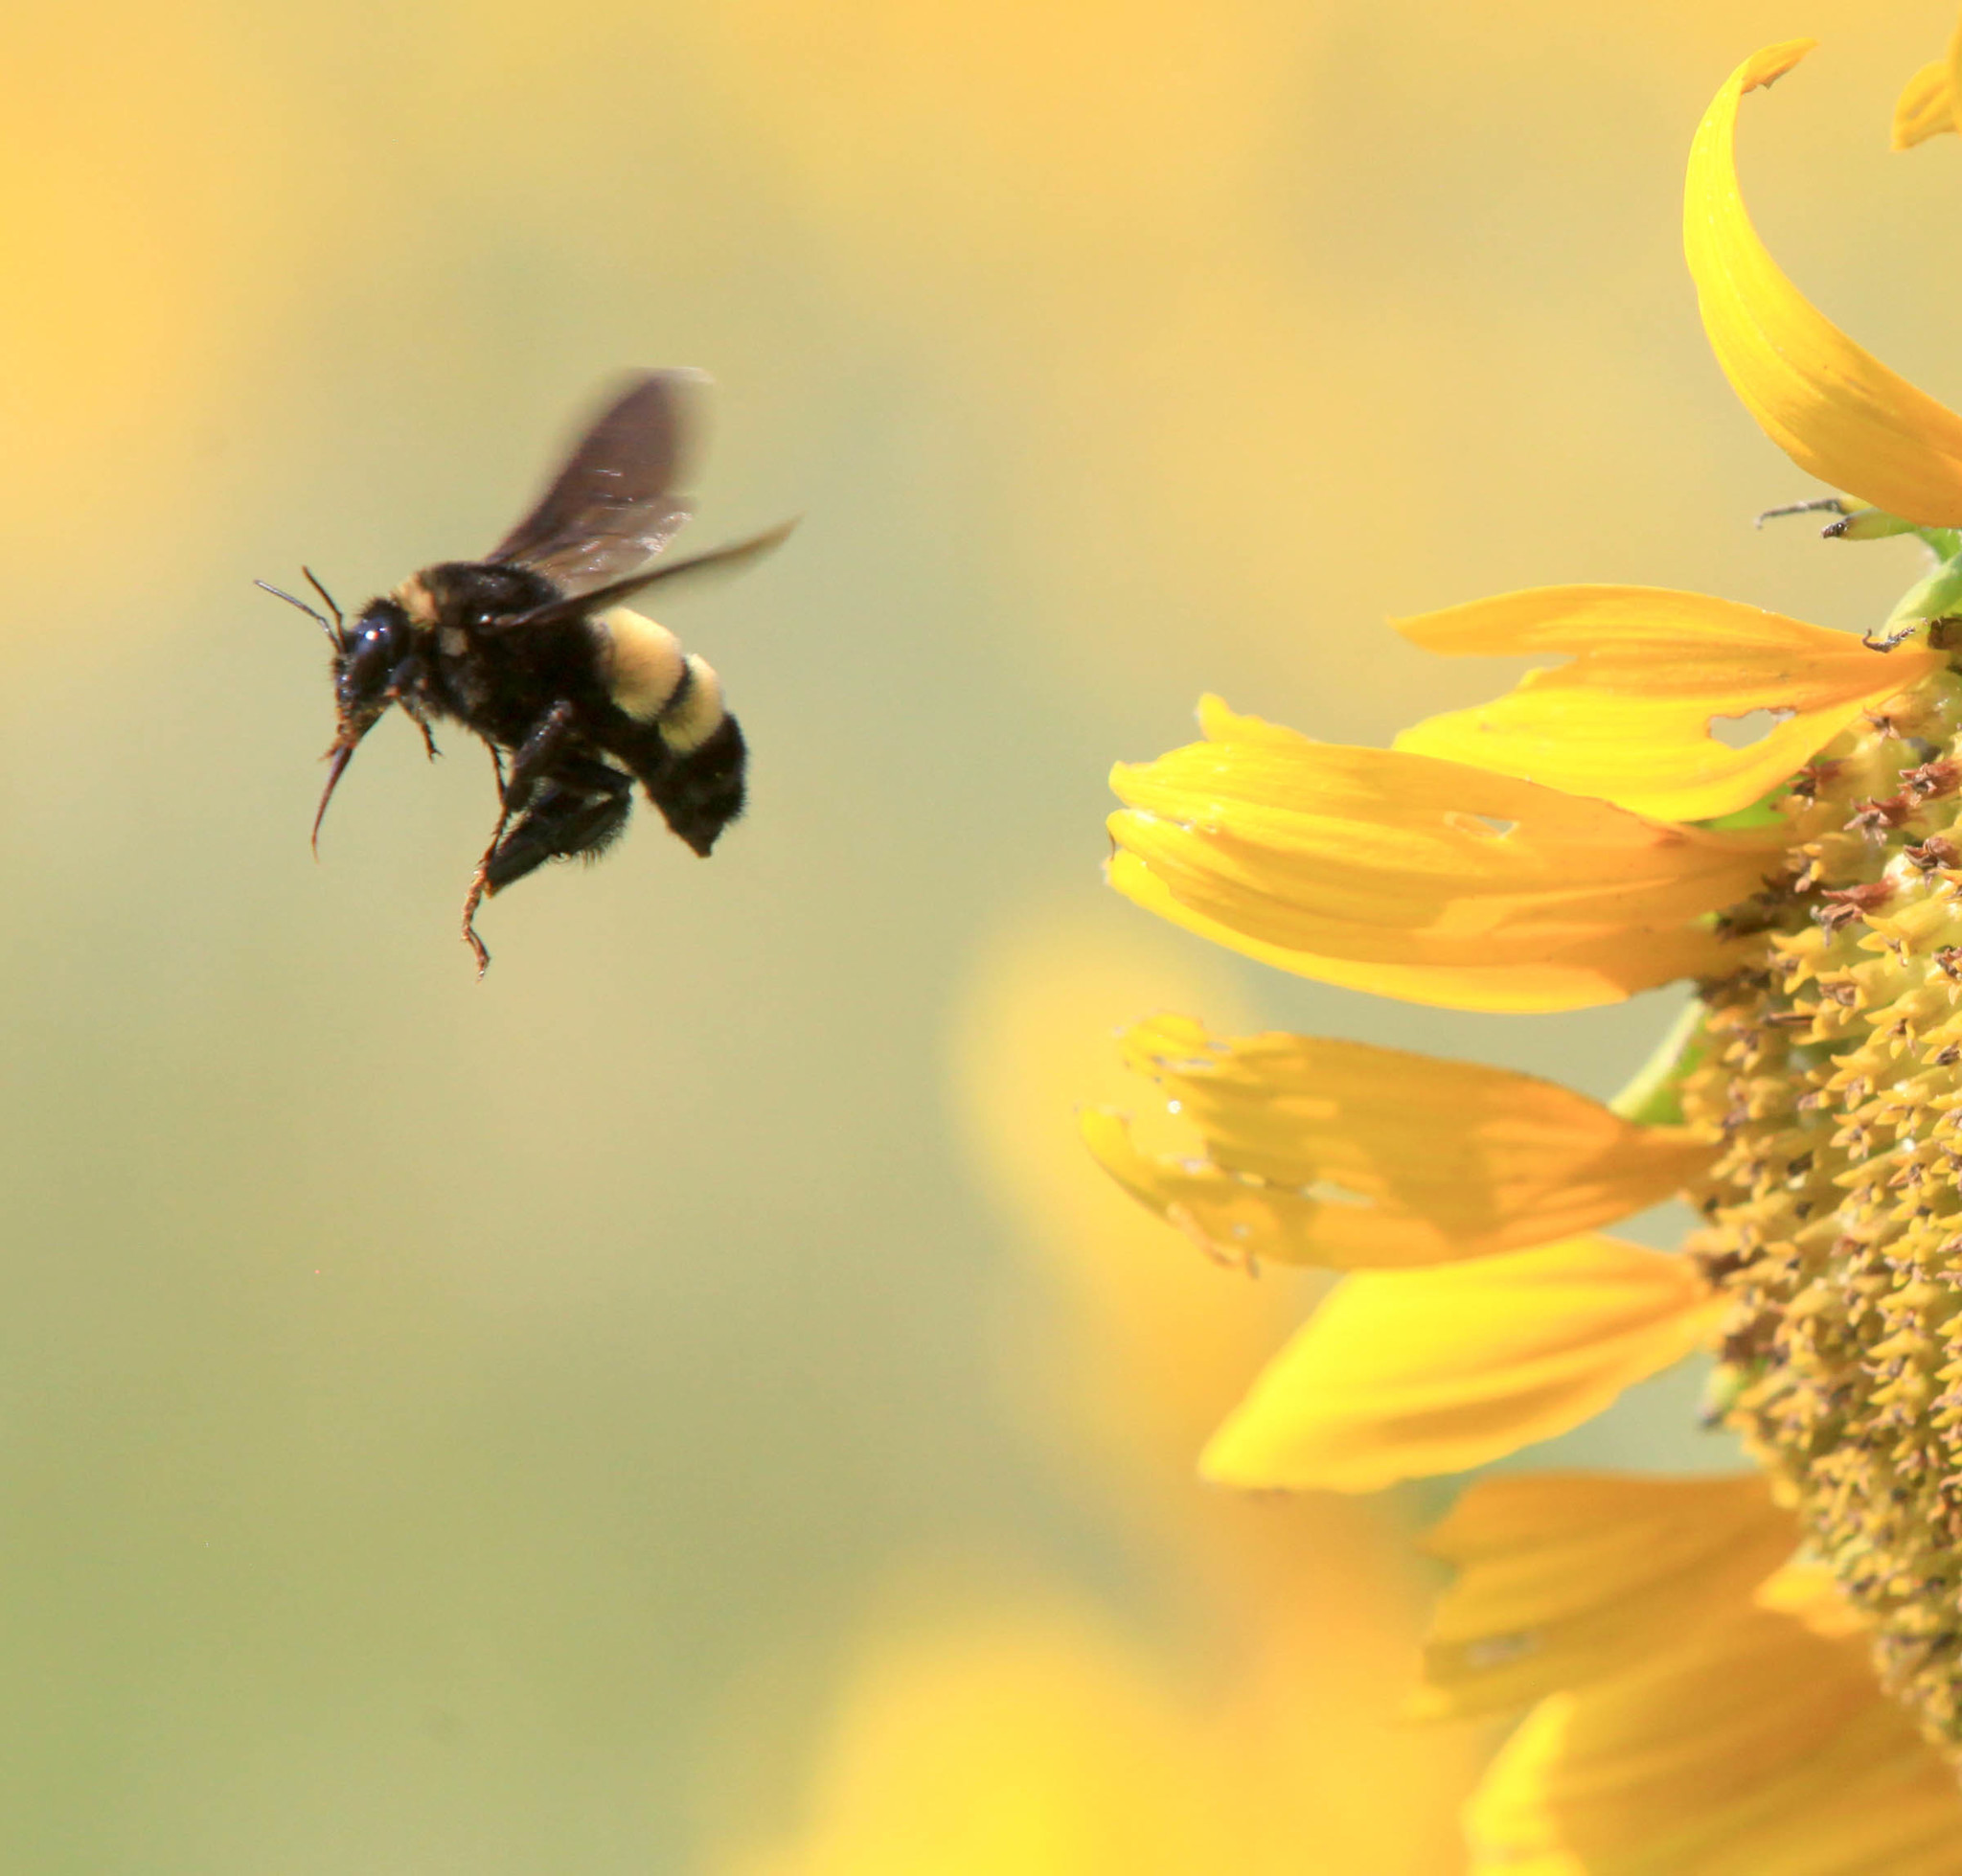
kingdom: Animalia
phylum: Arthropoda
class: Insecta
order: Hymenoptera
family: Apidae
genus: Bombus
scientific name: Bombus pensylvanicus
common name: Bumble bee
